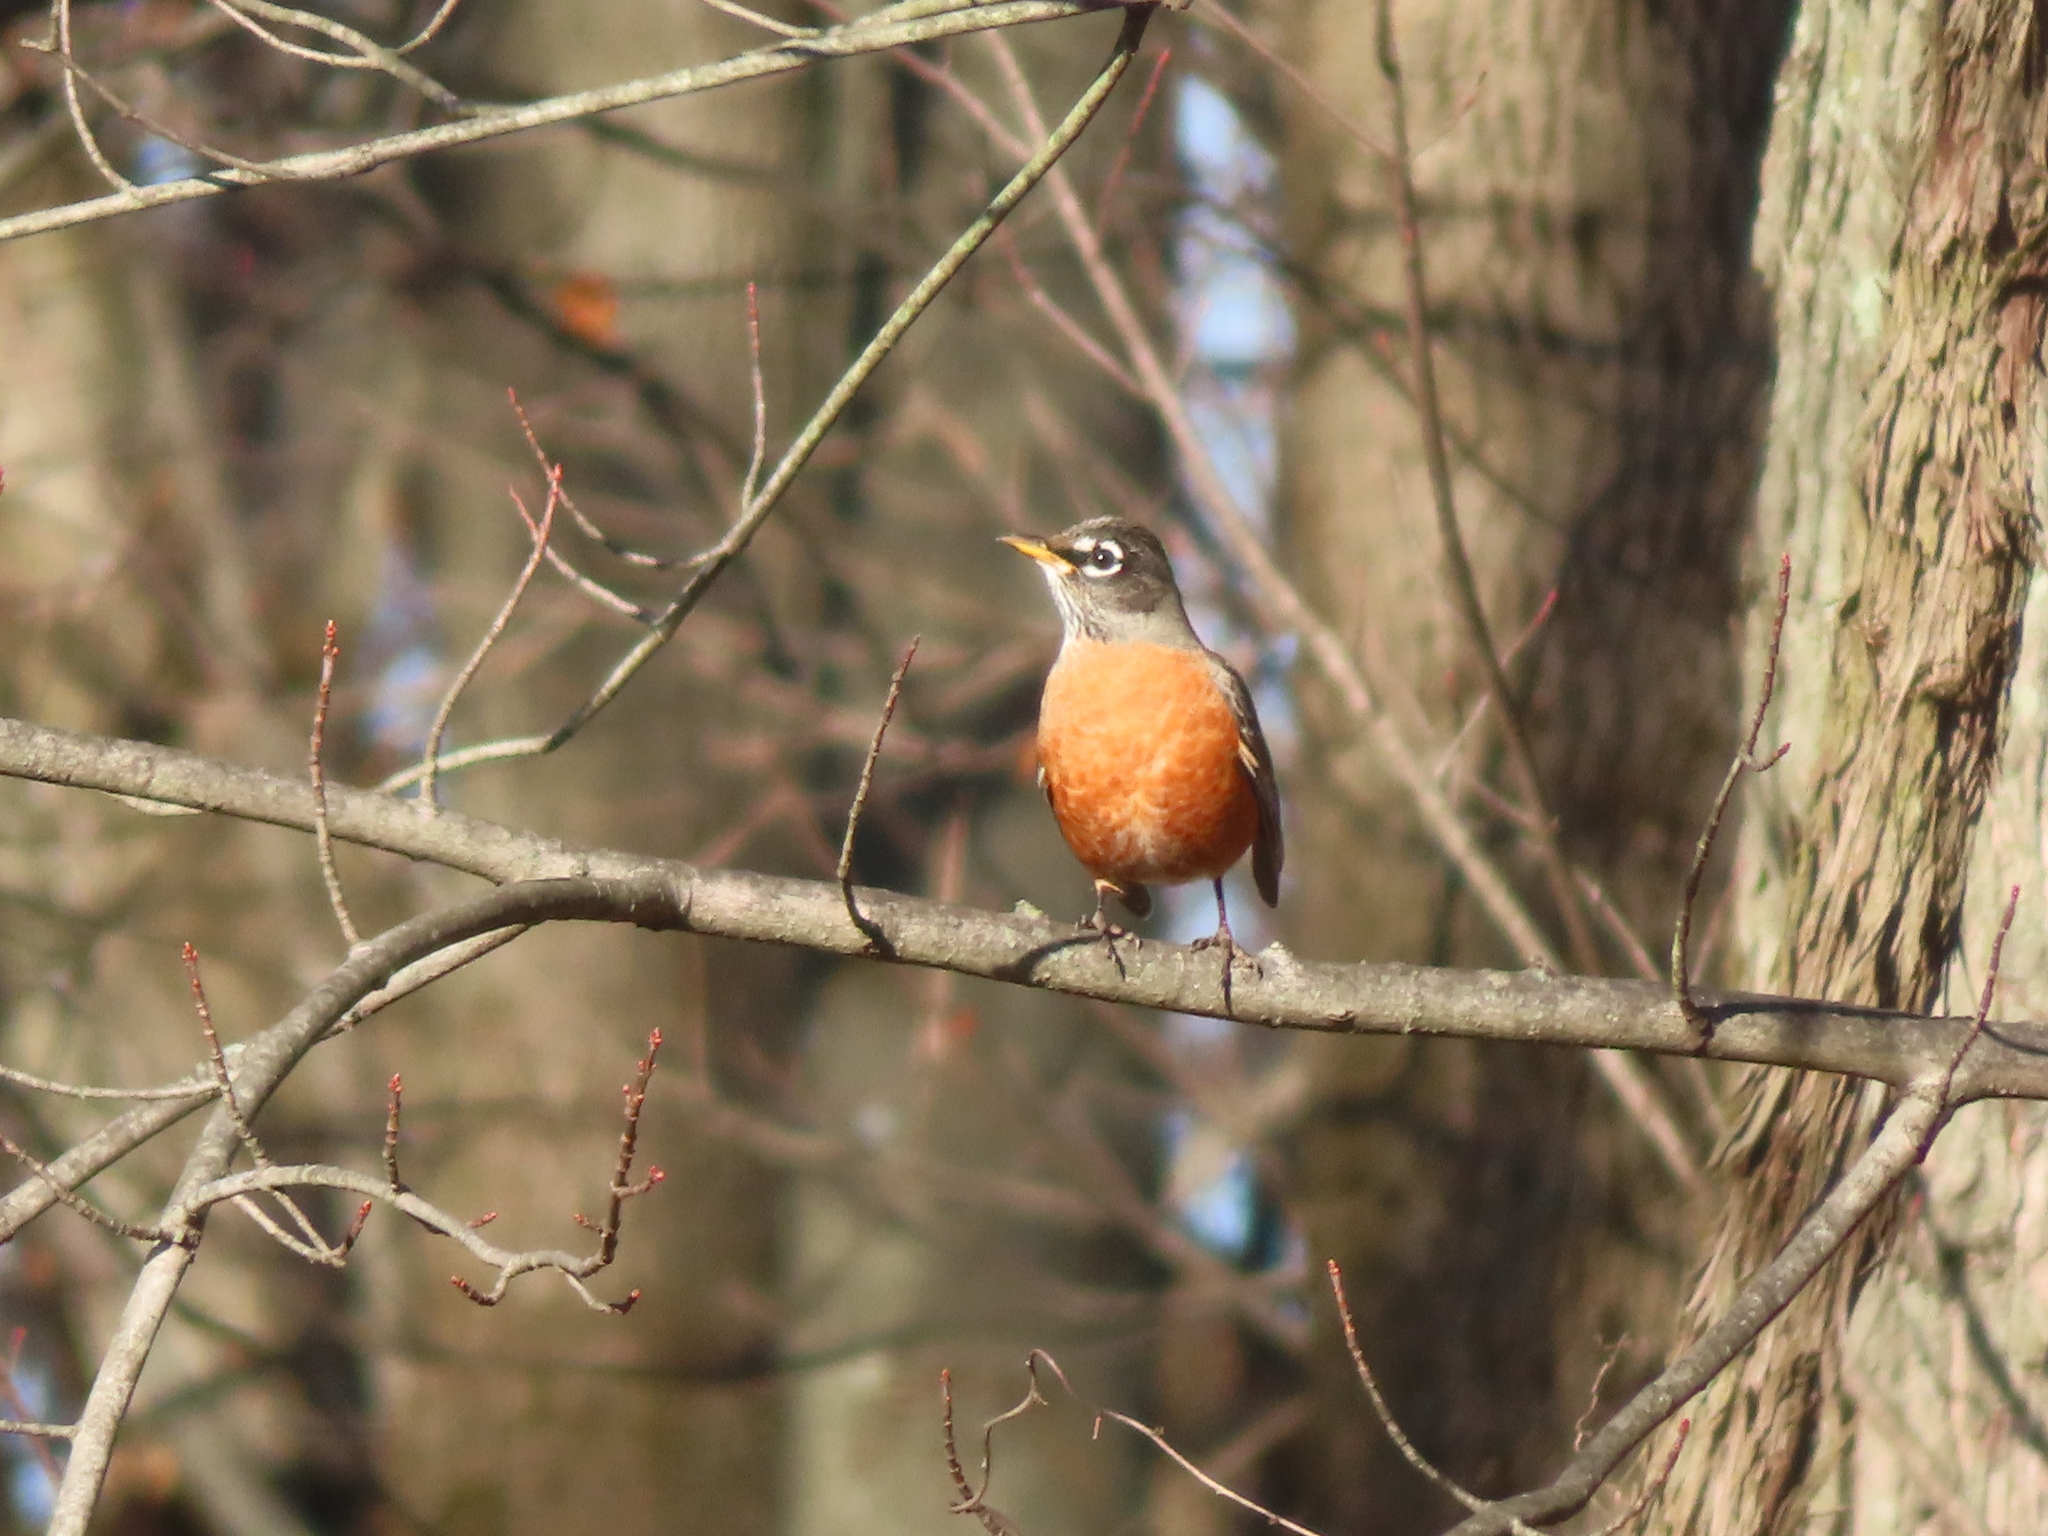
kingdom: Animalia
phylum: Chordata
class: Aves
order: Passeriformes
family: Turdidae
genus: Turdus
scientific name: Turdus migratorius
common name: American robin
